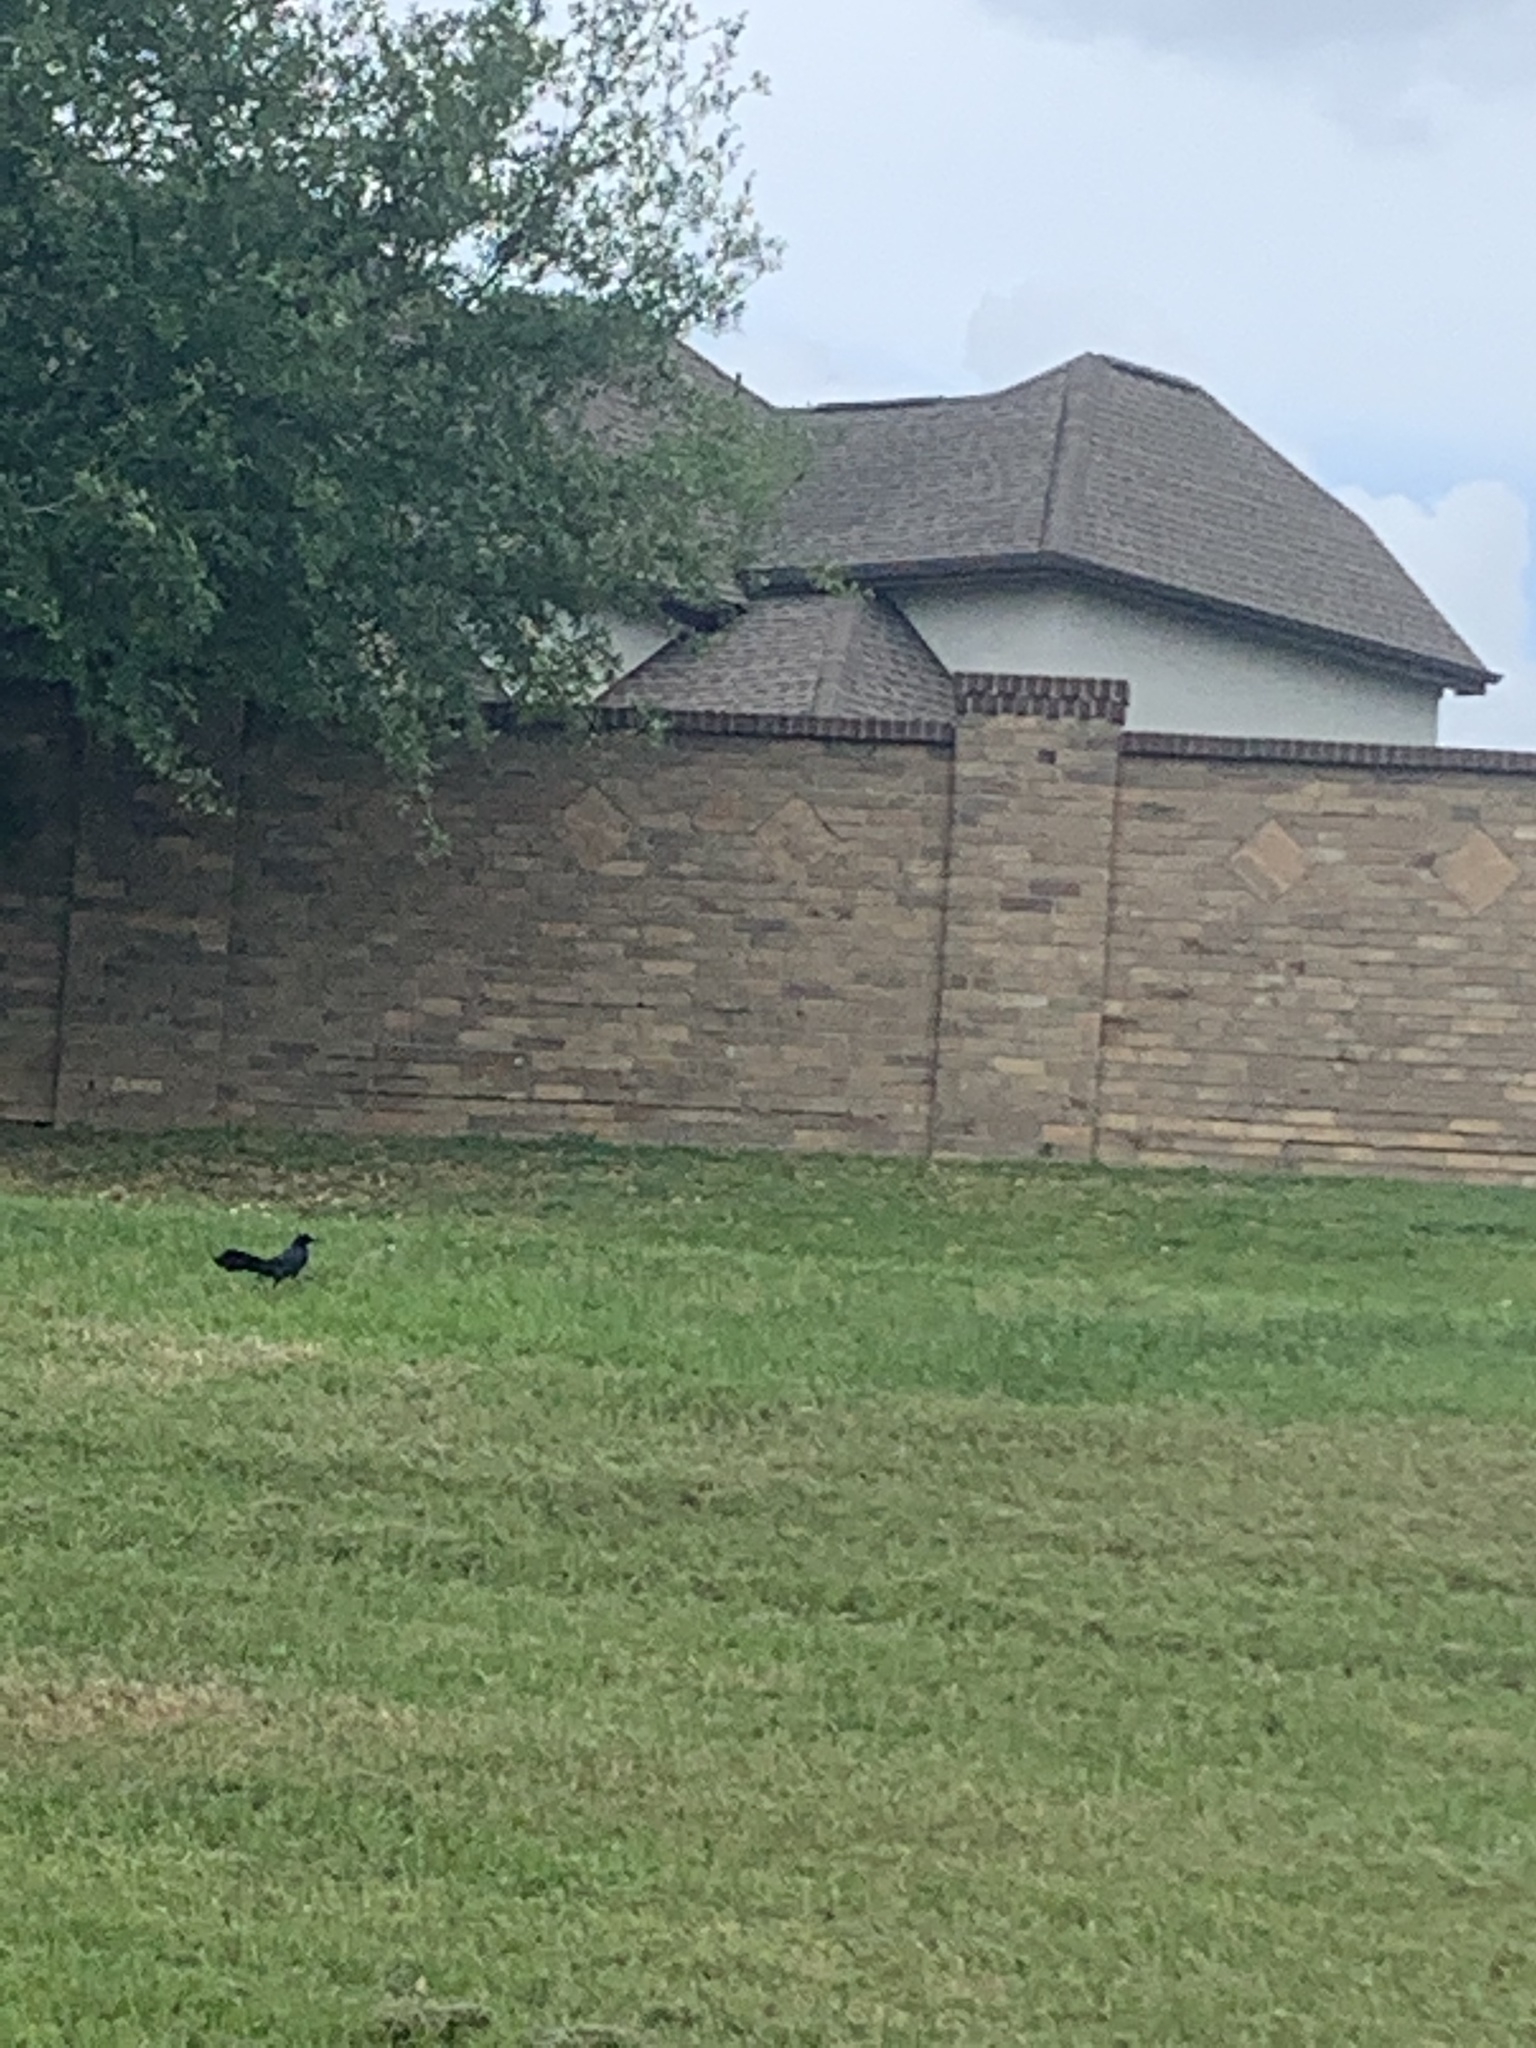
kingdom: Animalia
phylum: Chordata
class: Aves
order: Passeriformes
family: Icteridae
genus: Quiscalus
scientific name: Quiscalus mexicanus
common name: Great-tailed grackle
